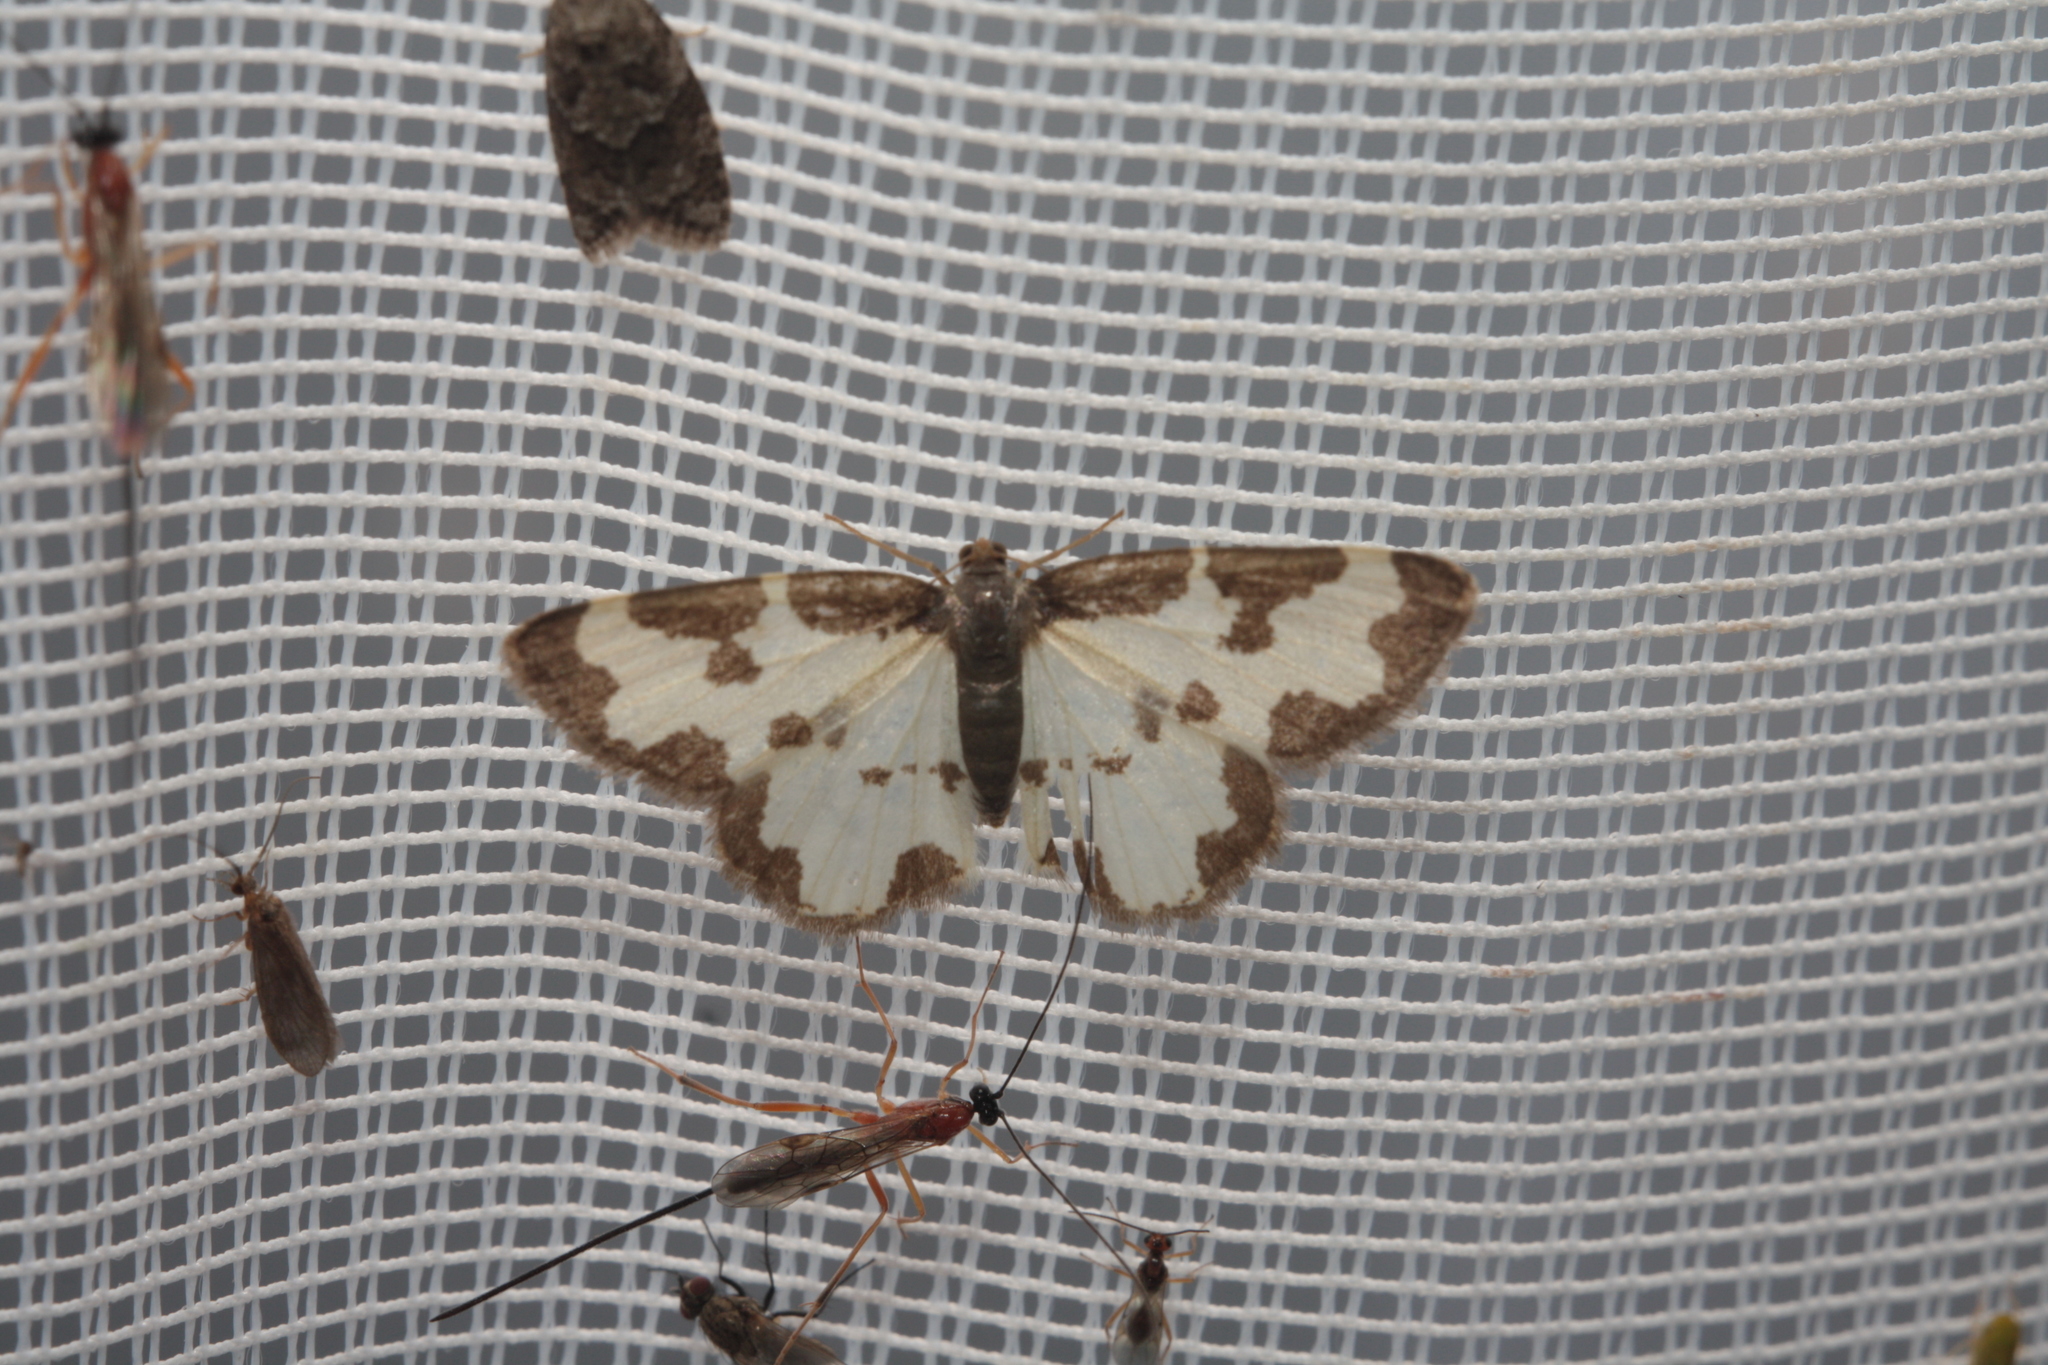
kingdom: Animalia
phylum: Arthropoda
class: Insecta
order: Lepidoptera
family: Geometridae
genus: Lomaspilis
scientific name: Lomaspilis marginata
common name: Clouded border
